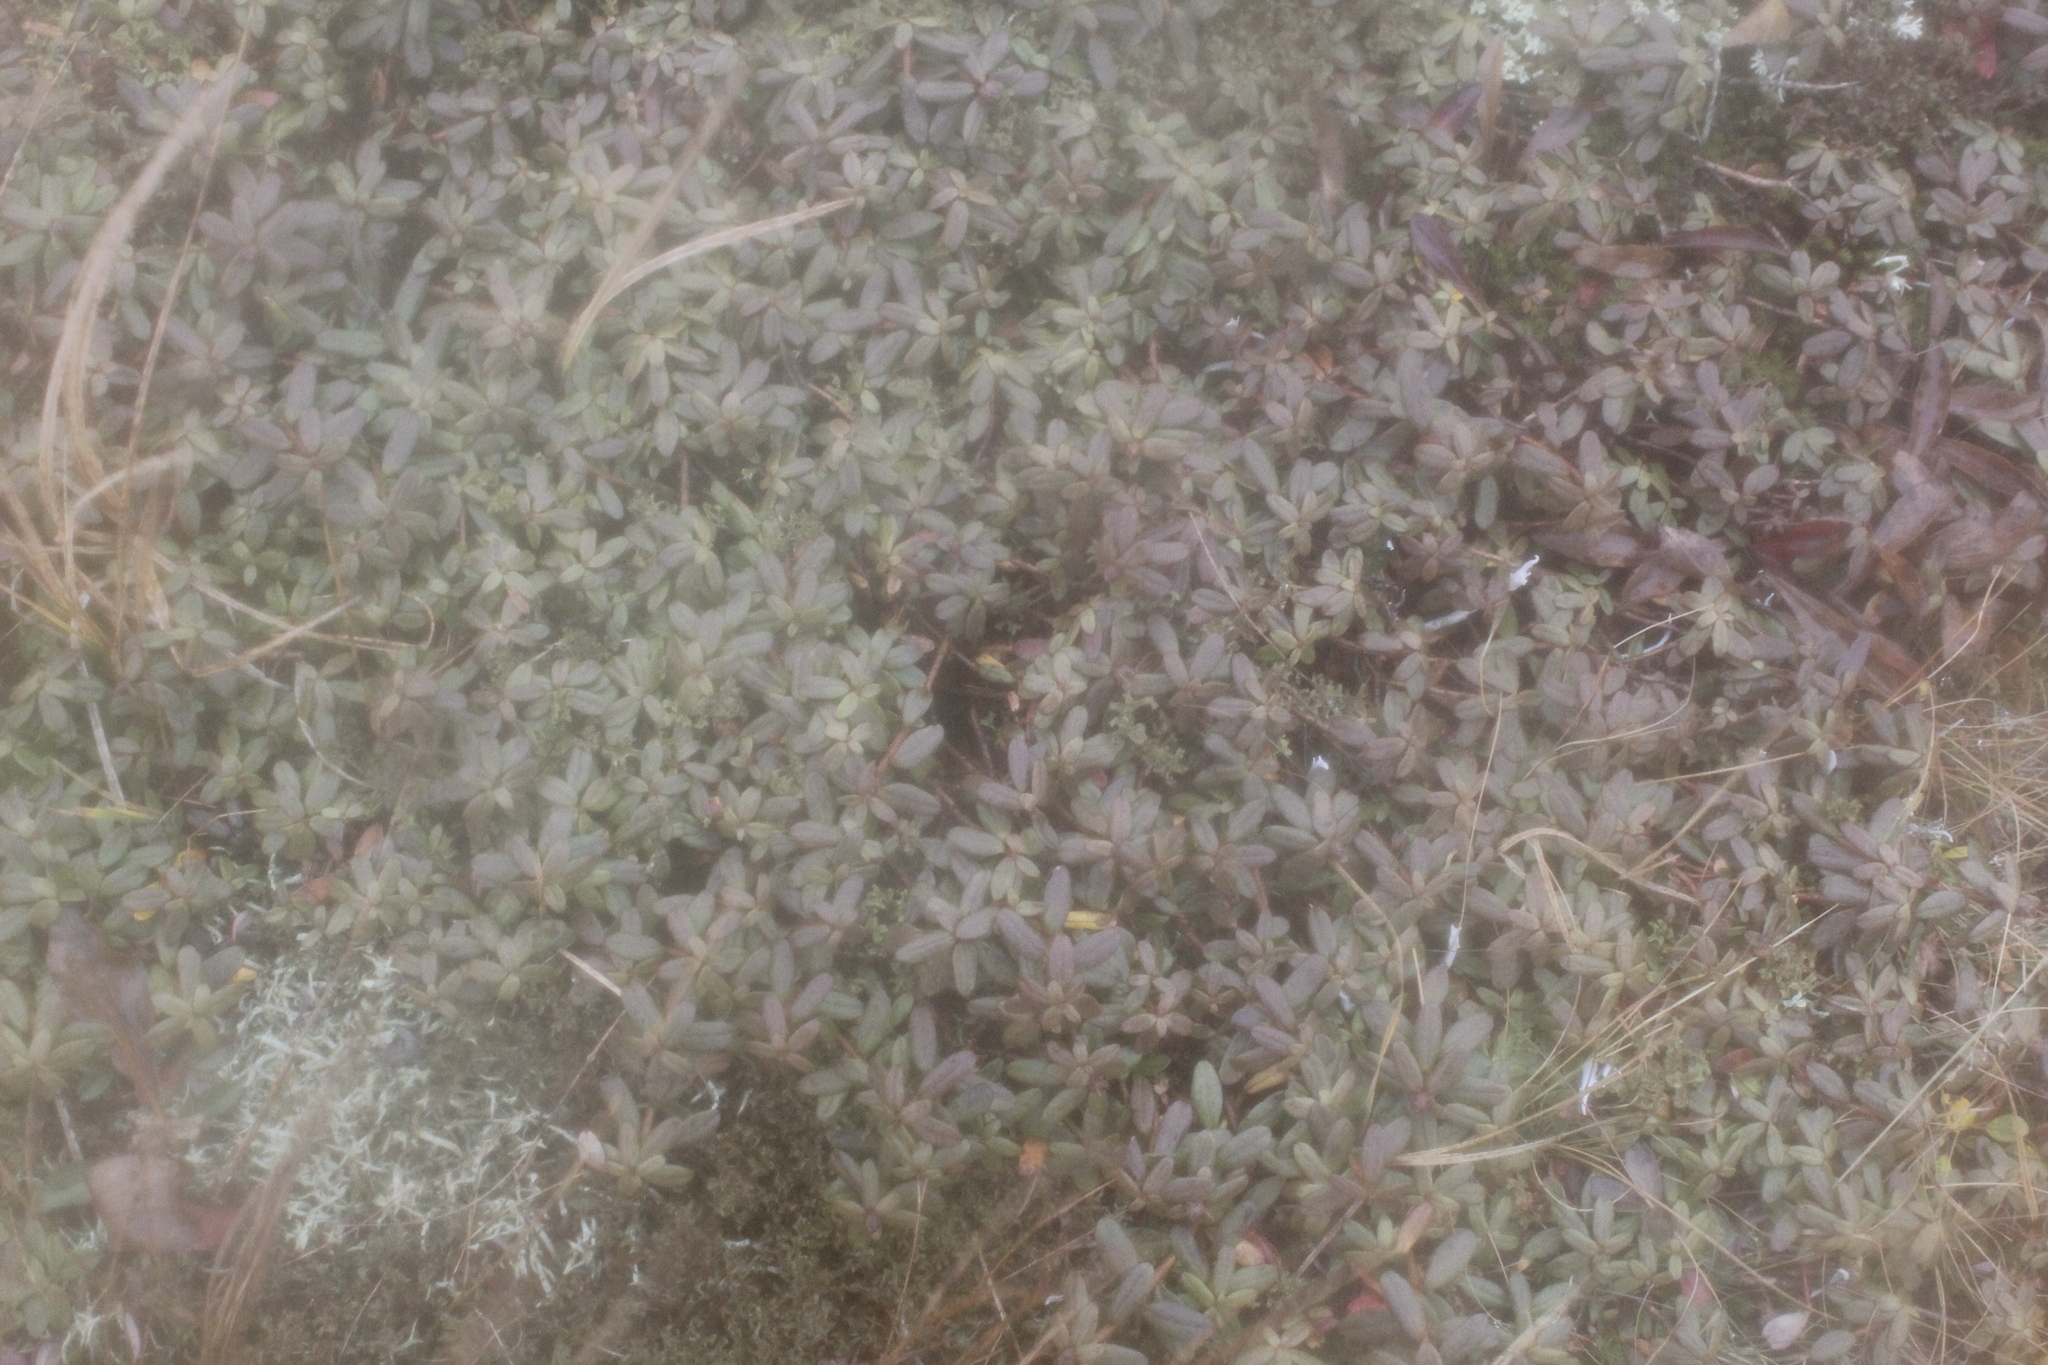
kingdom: Plantae
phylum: Tracheophyta
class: Magnoliopsida
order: Ericales
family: Ericaceae
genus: Rhododendron
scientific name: Rhododendron lapponicum
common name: Lapland rhododendron
